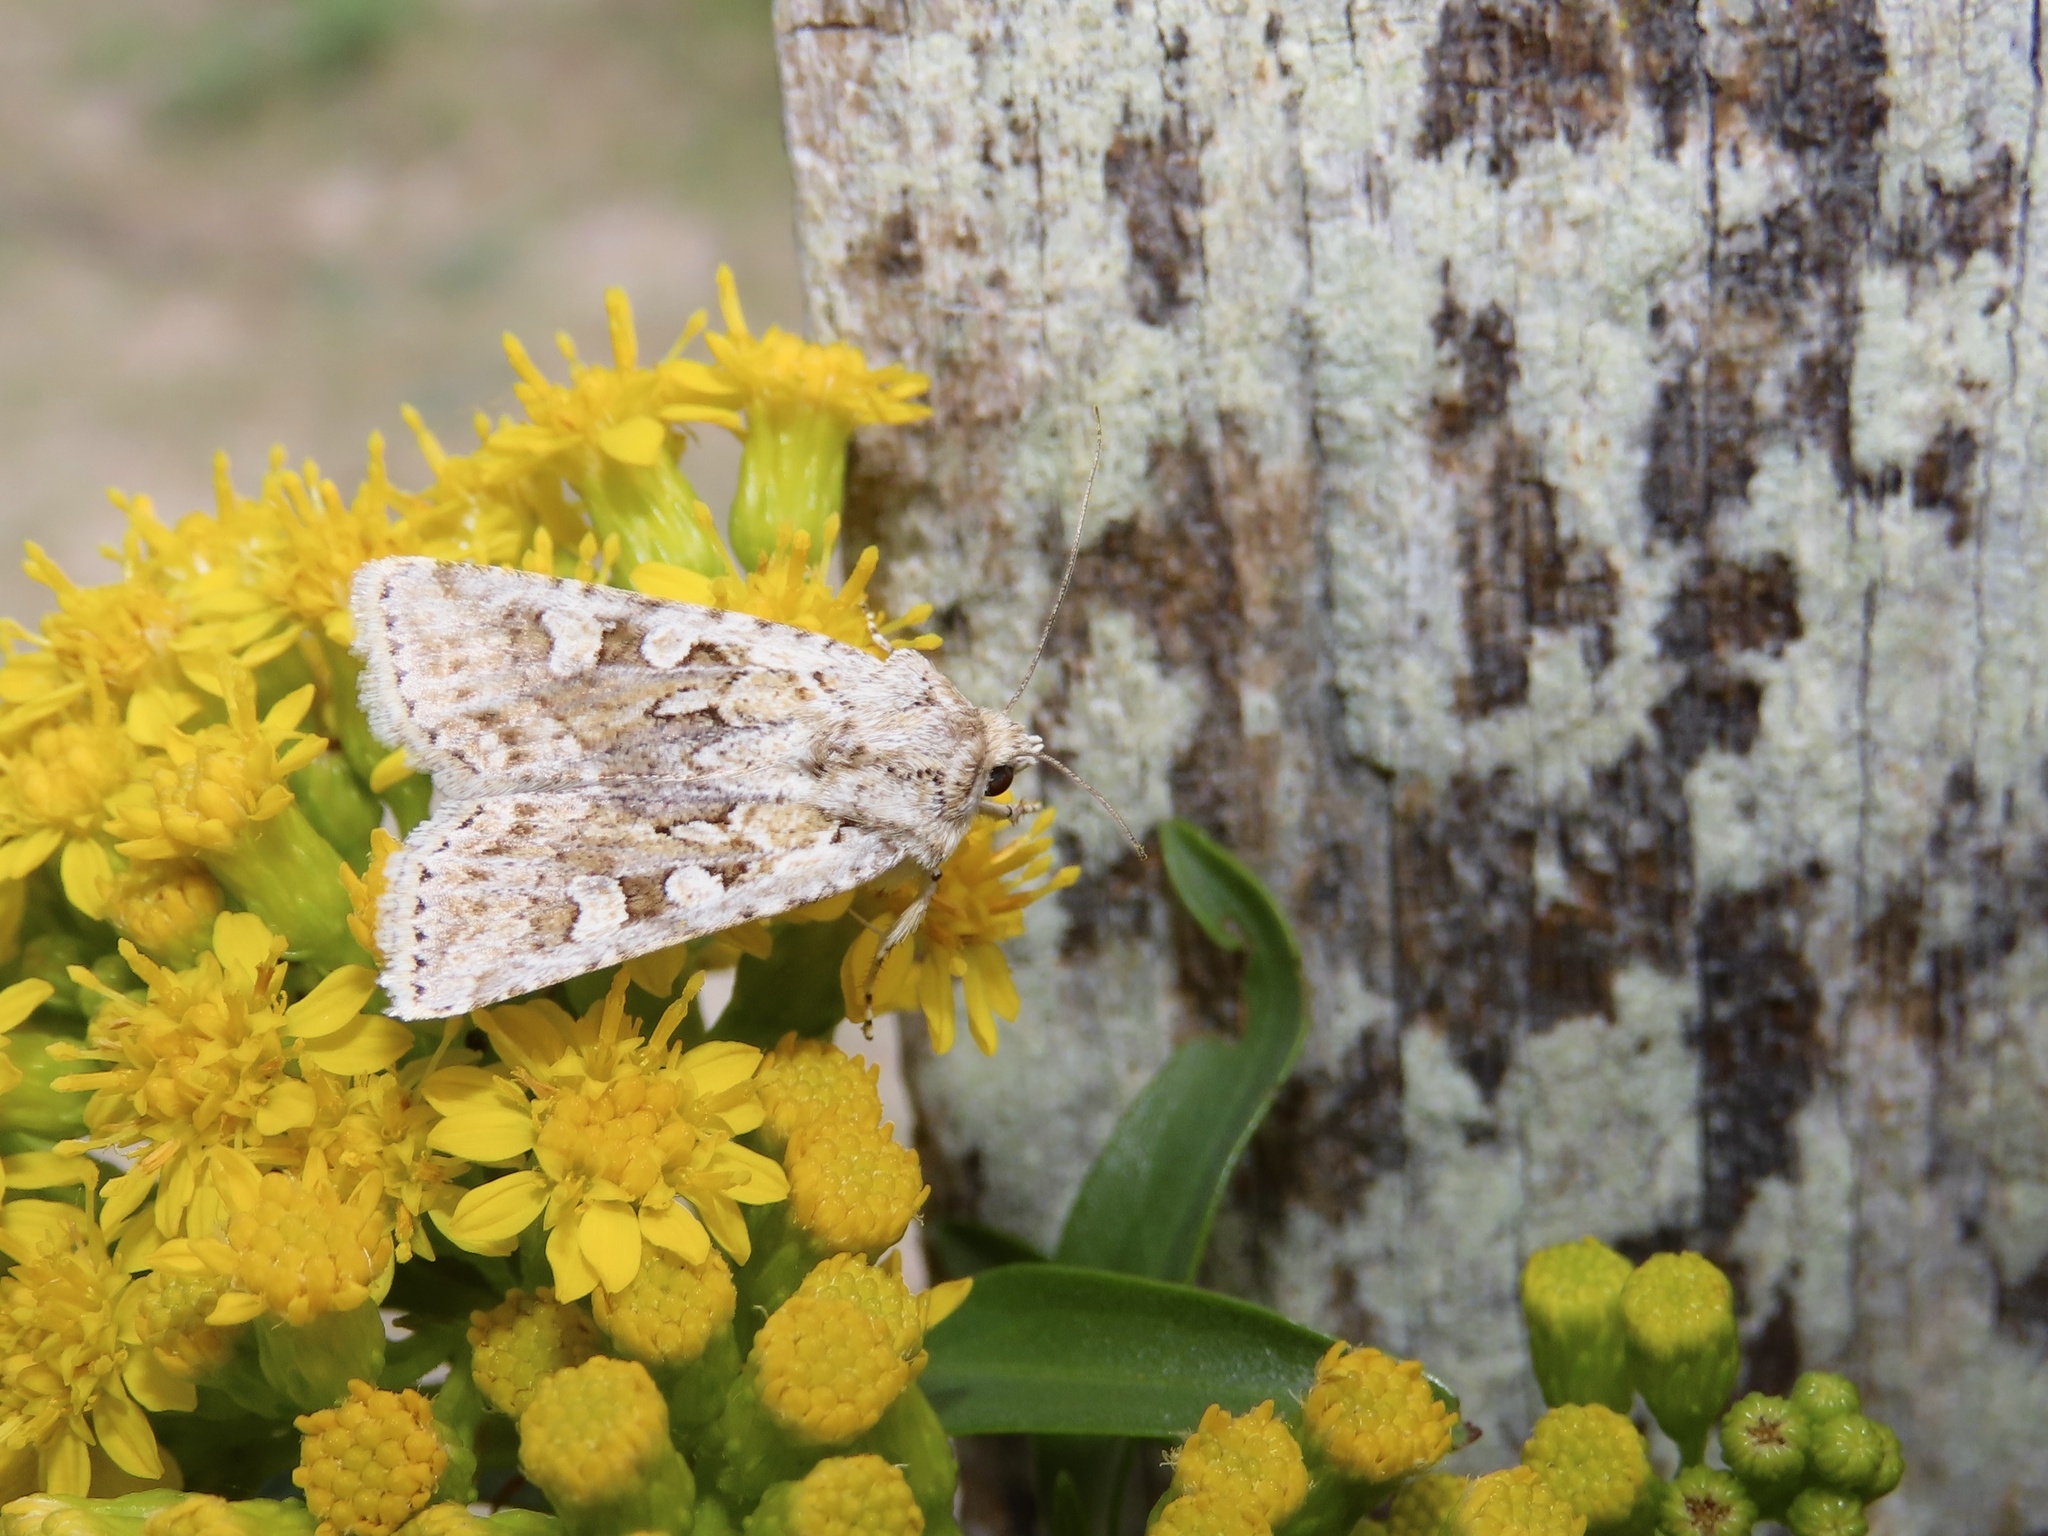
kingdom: Animalia
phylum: Arthropoda
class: Insecta
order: Lepidoptera
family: Noctuidae
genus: Euxoa
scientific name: Euxoa detersa
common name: Rubbed dart
